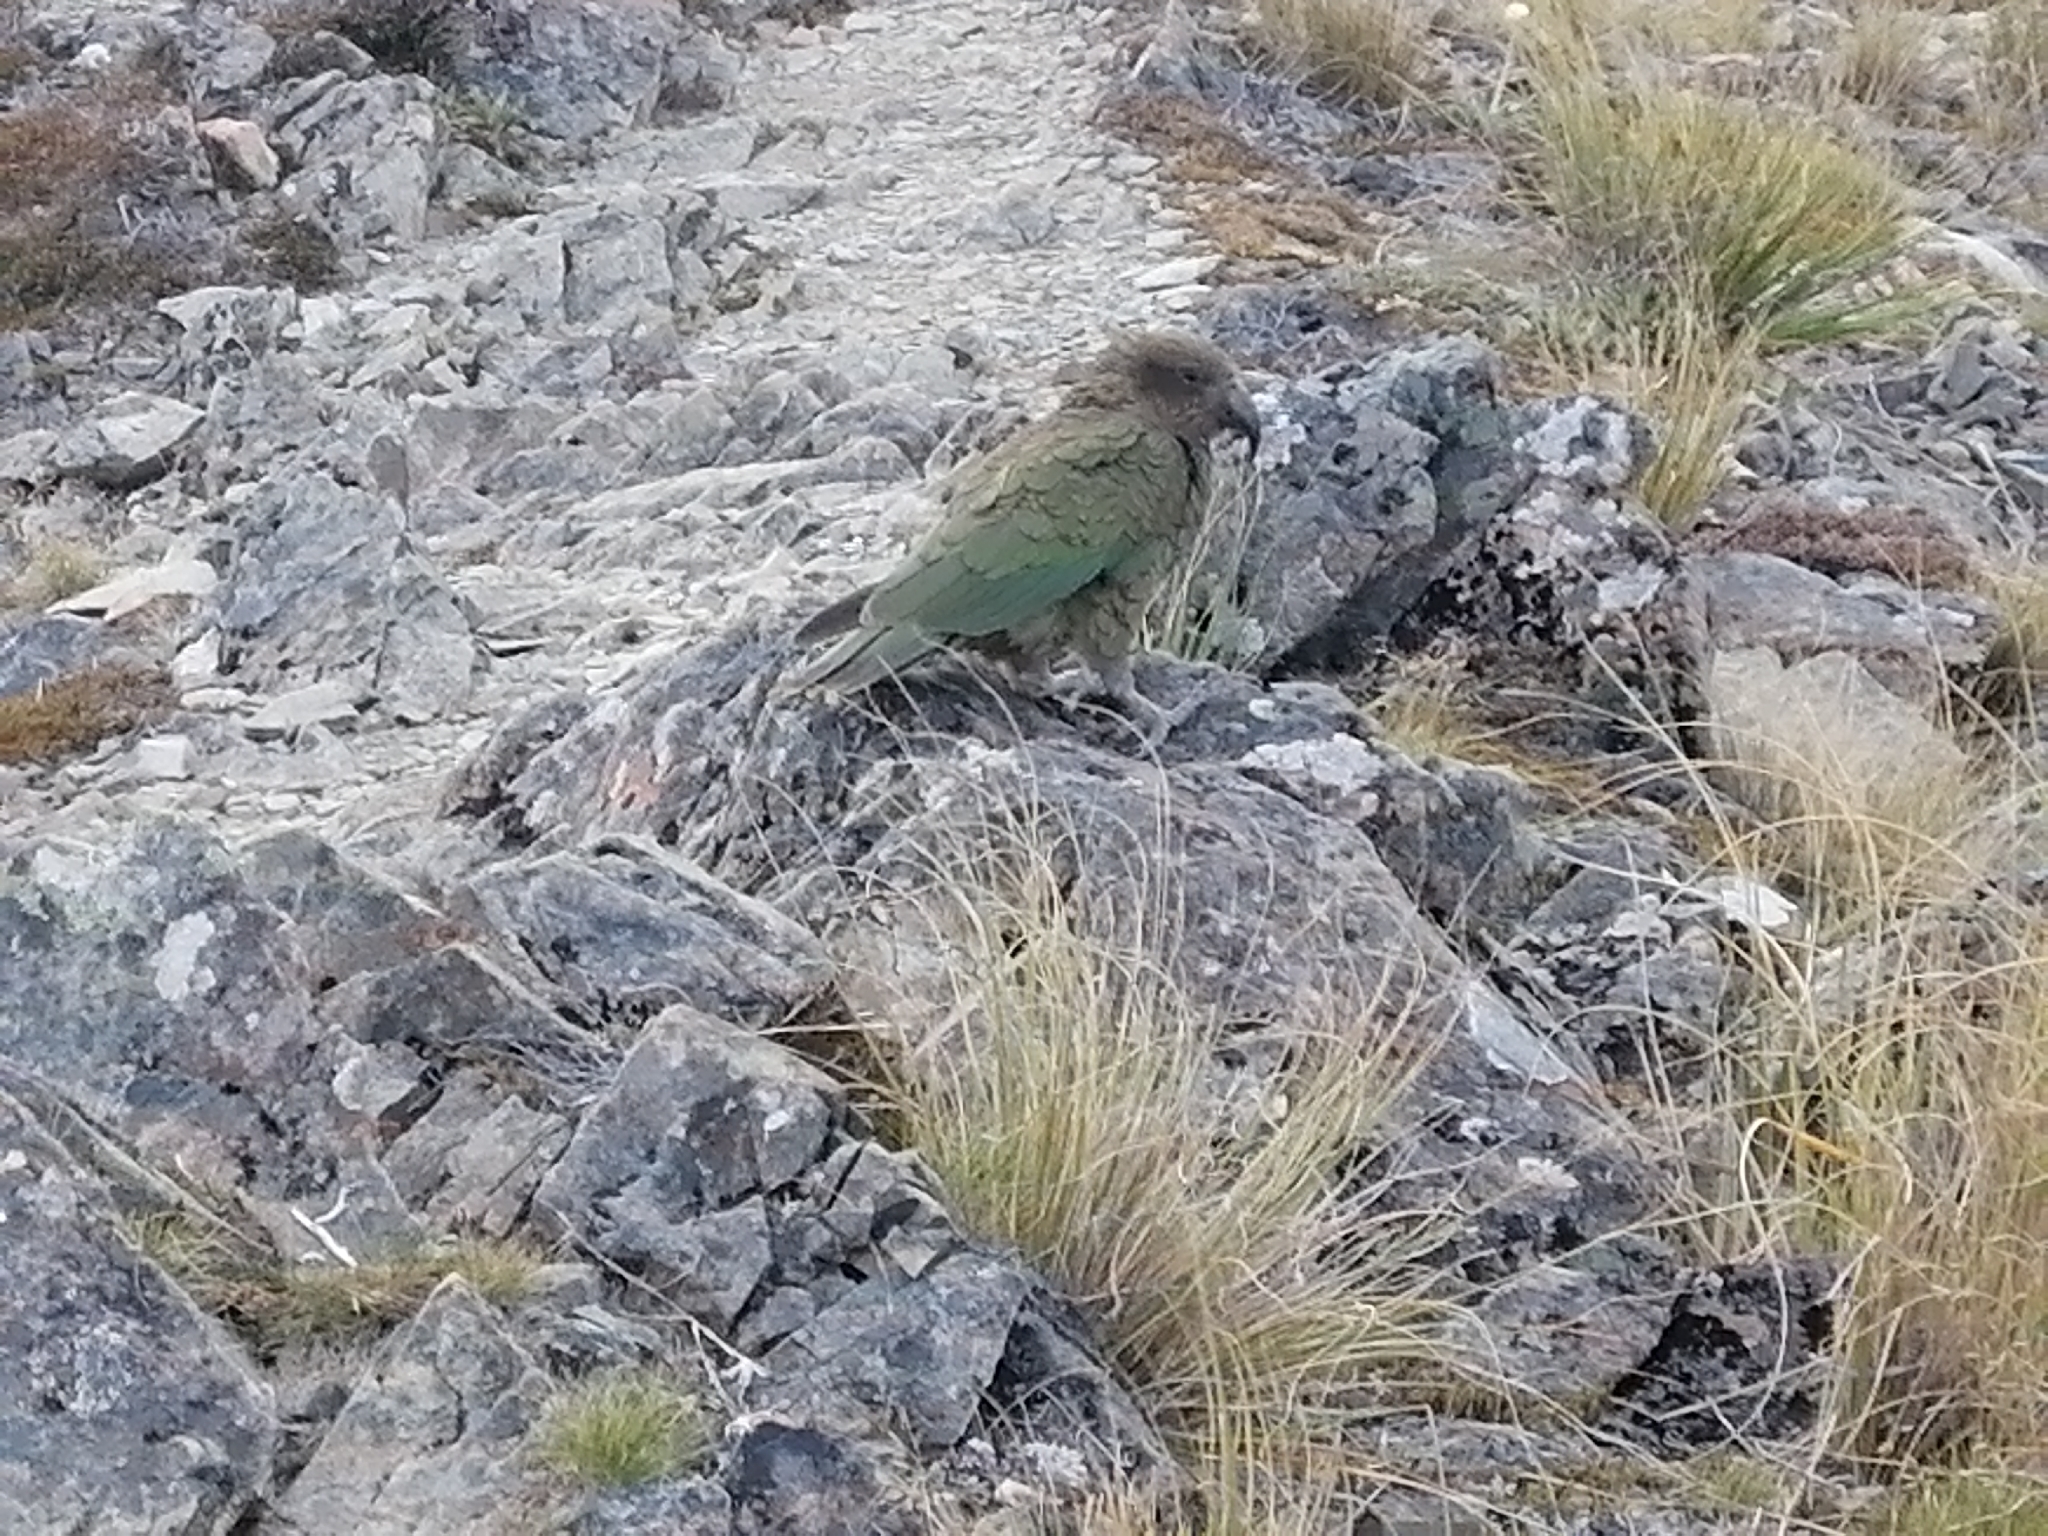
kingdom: Animalia
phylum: Chordata
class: Aves
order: Psittaciformes
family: Psittacidae
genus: Nestor
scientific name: Nestor notabilis
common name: Kea
